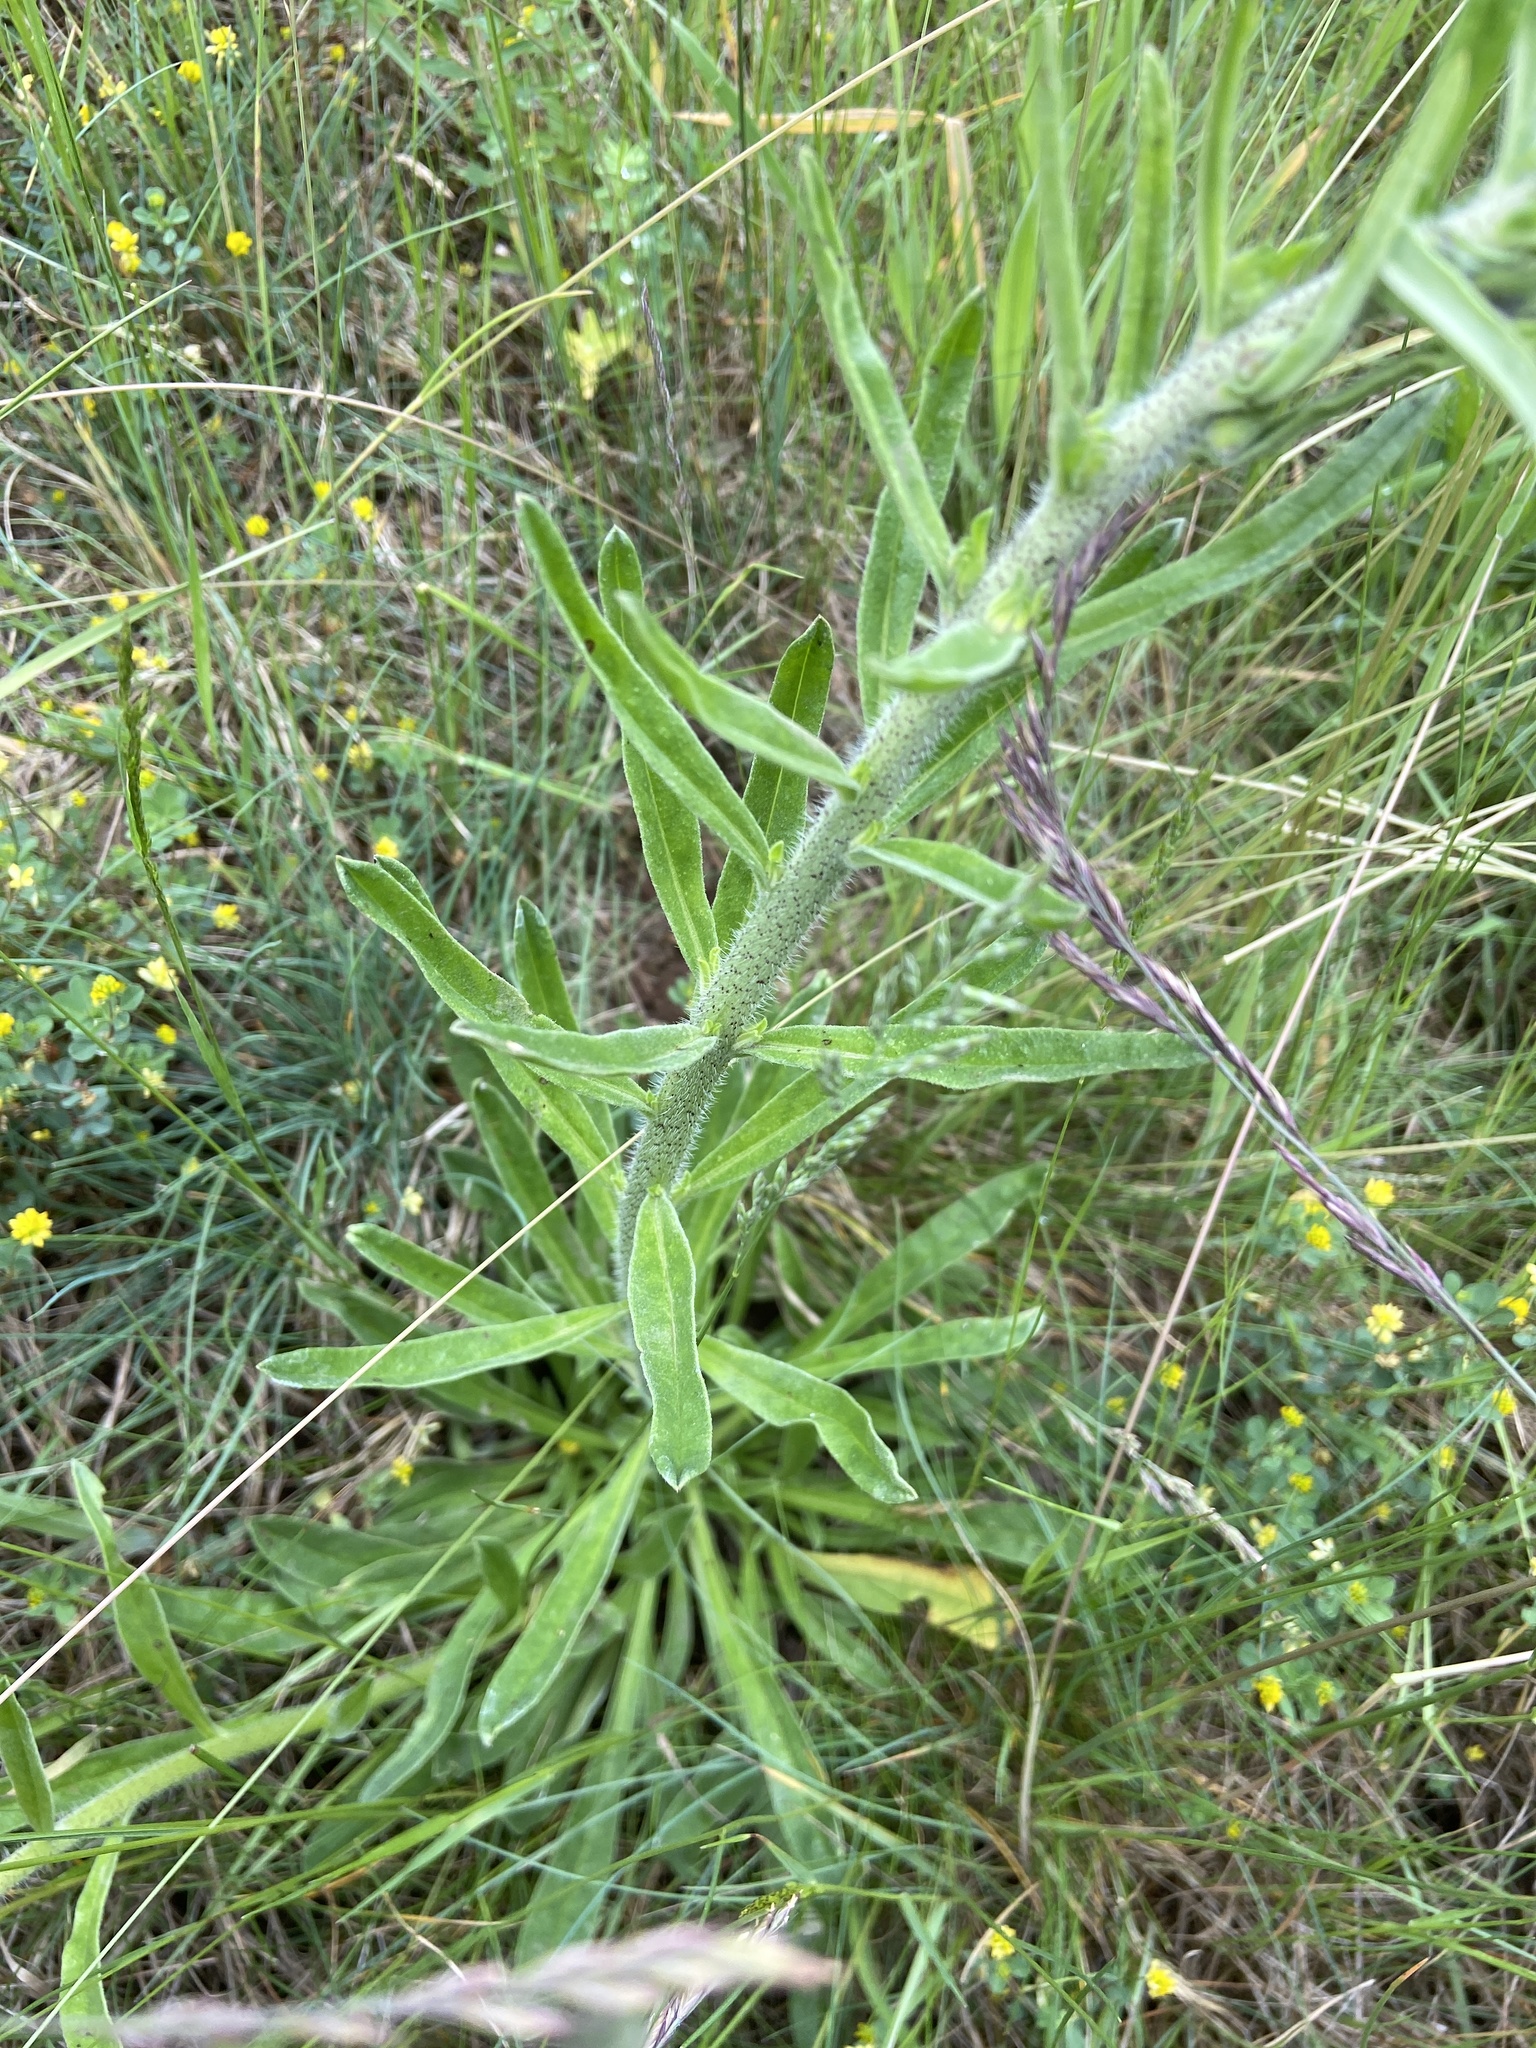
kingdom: Plantae
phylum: Tracheophyta
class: Magnoliopsida
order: Boraginales
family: Boraginaceae
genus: Echium
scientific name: Echium vulgare
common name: Common viper's bugloss
